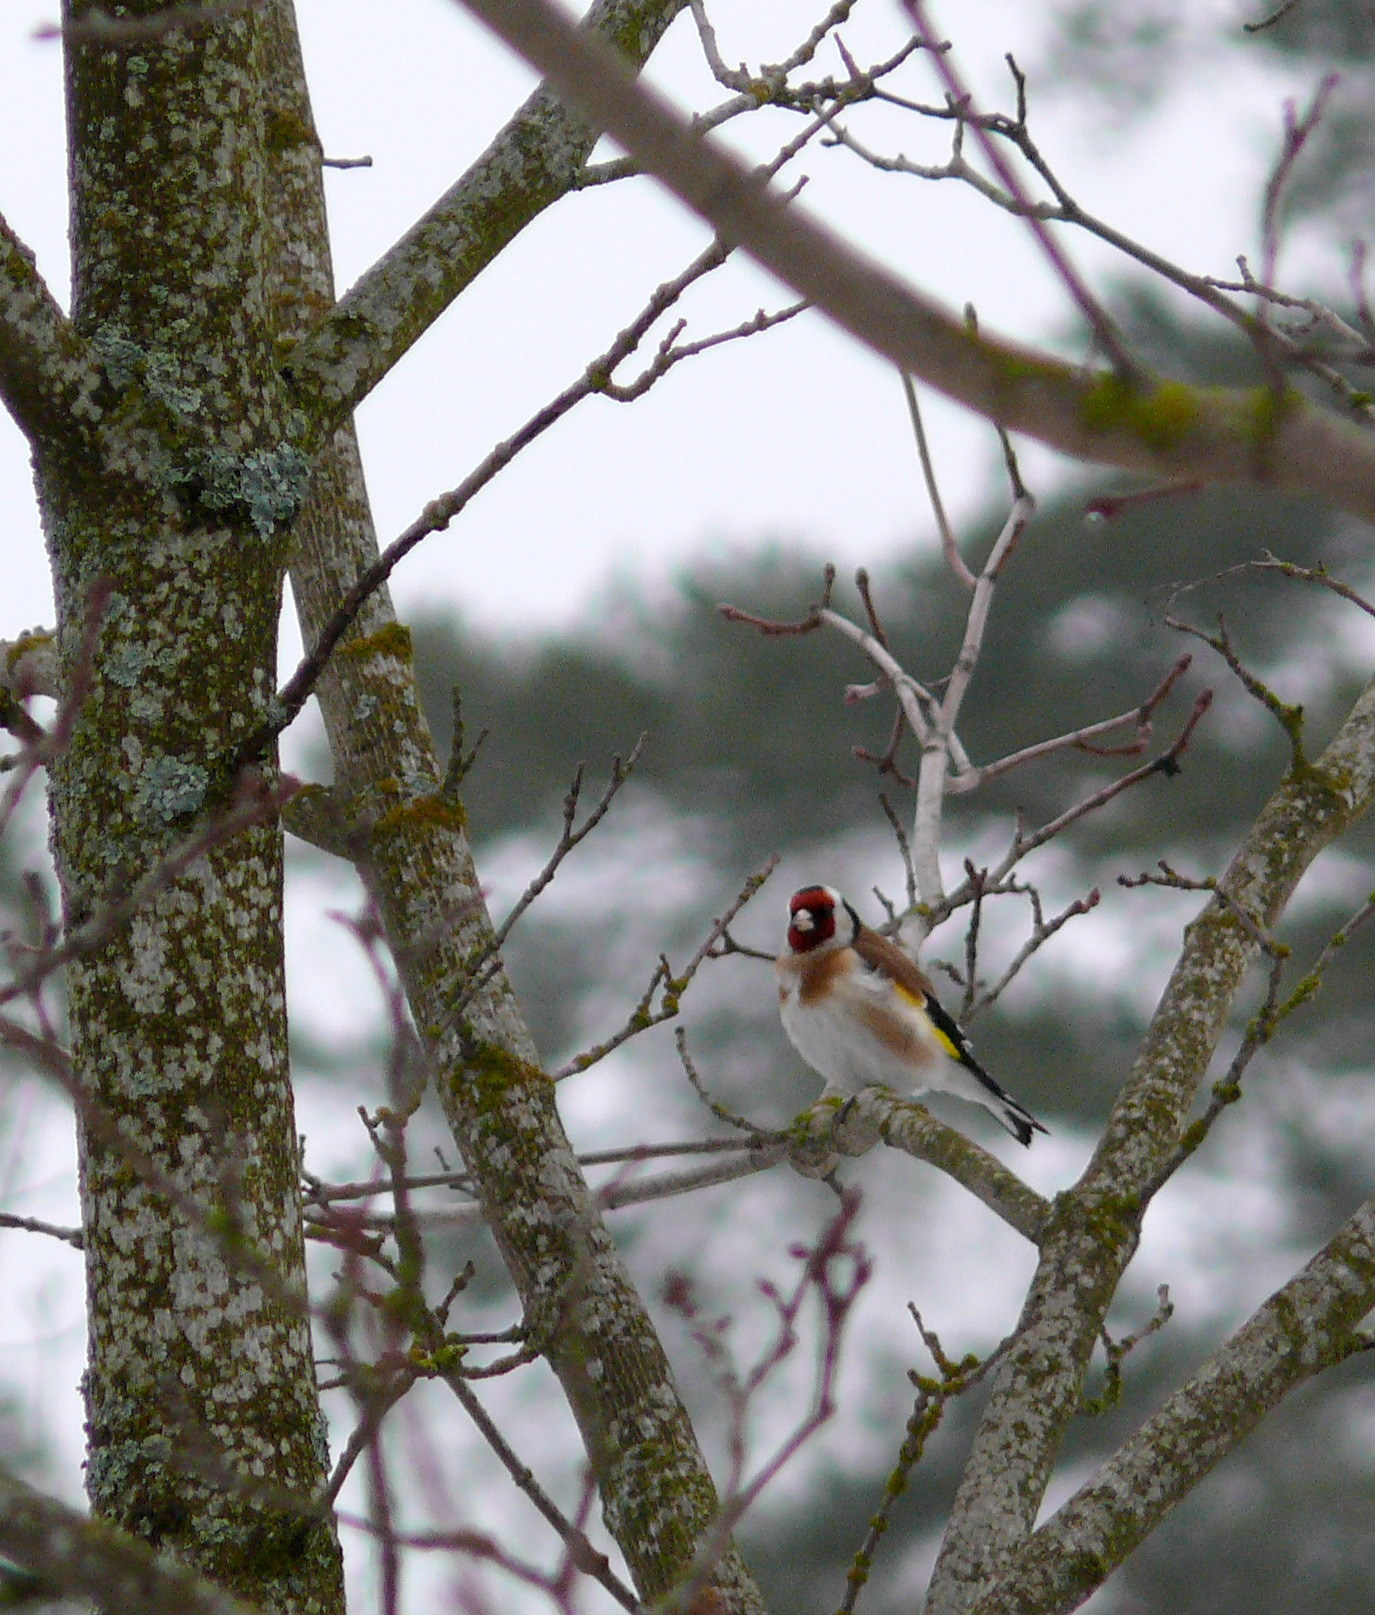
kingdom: Animalia
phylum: Chordata
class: Aves
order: Passeriformes
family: Fringillidae
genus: Carduelis
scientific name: Carduelis carduelis
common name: European goldfinch
